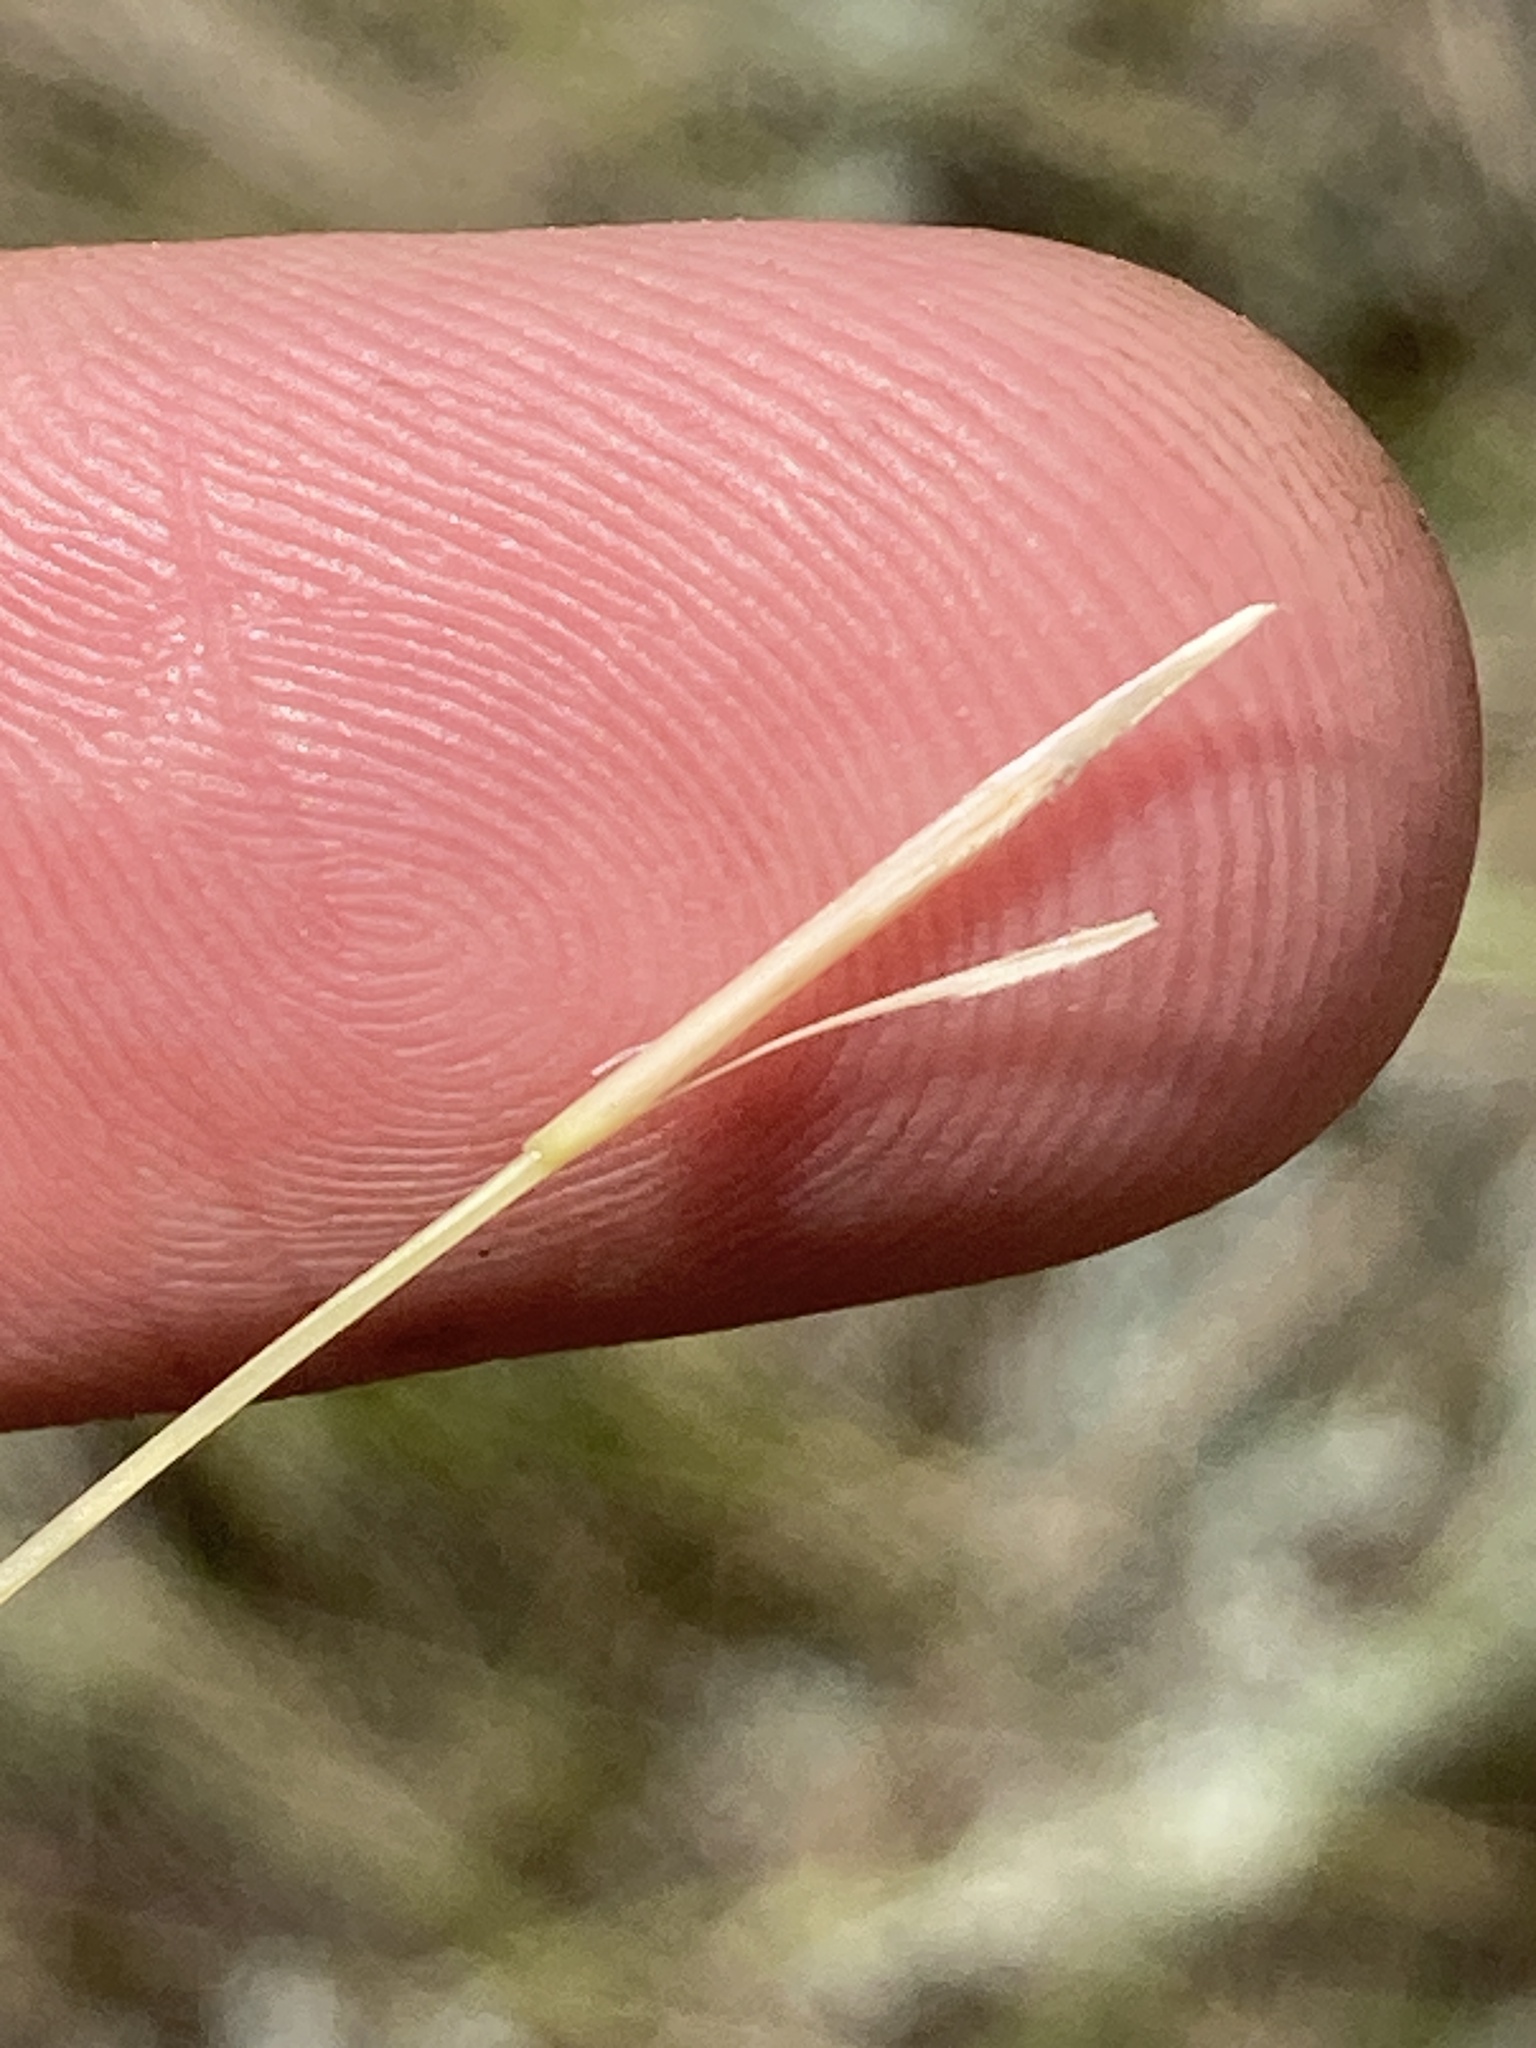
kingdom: Plantae
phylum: Tracheophyta
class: Liliopsida
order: Poales
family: Poaceae
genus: Stipa
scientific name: Stipa capillata
